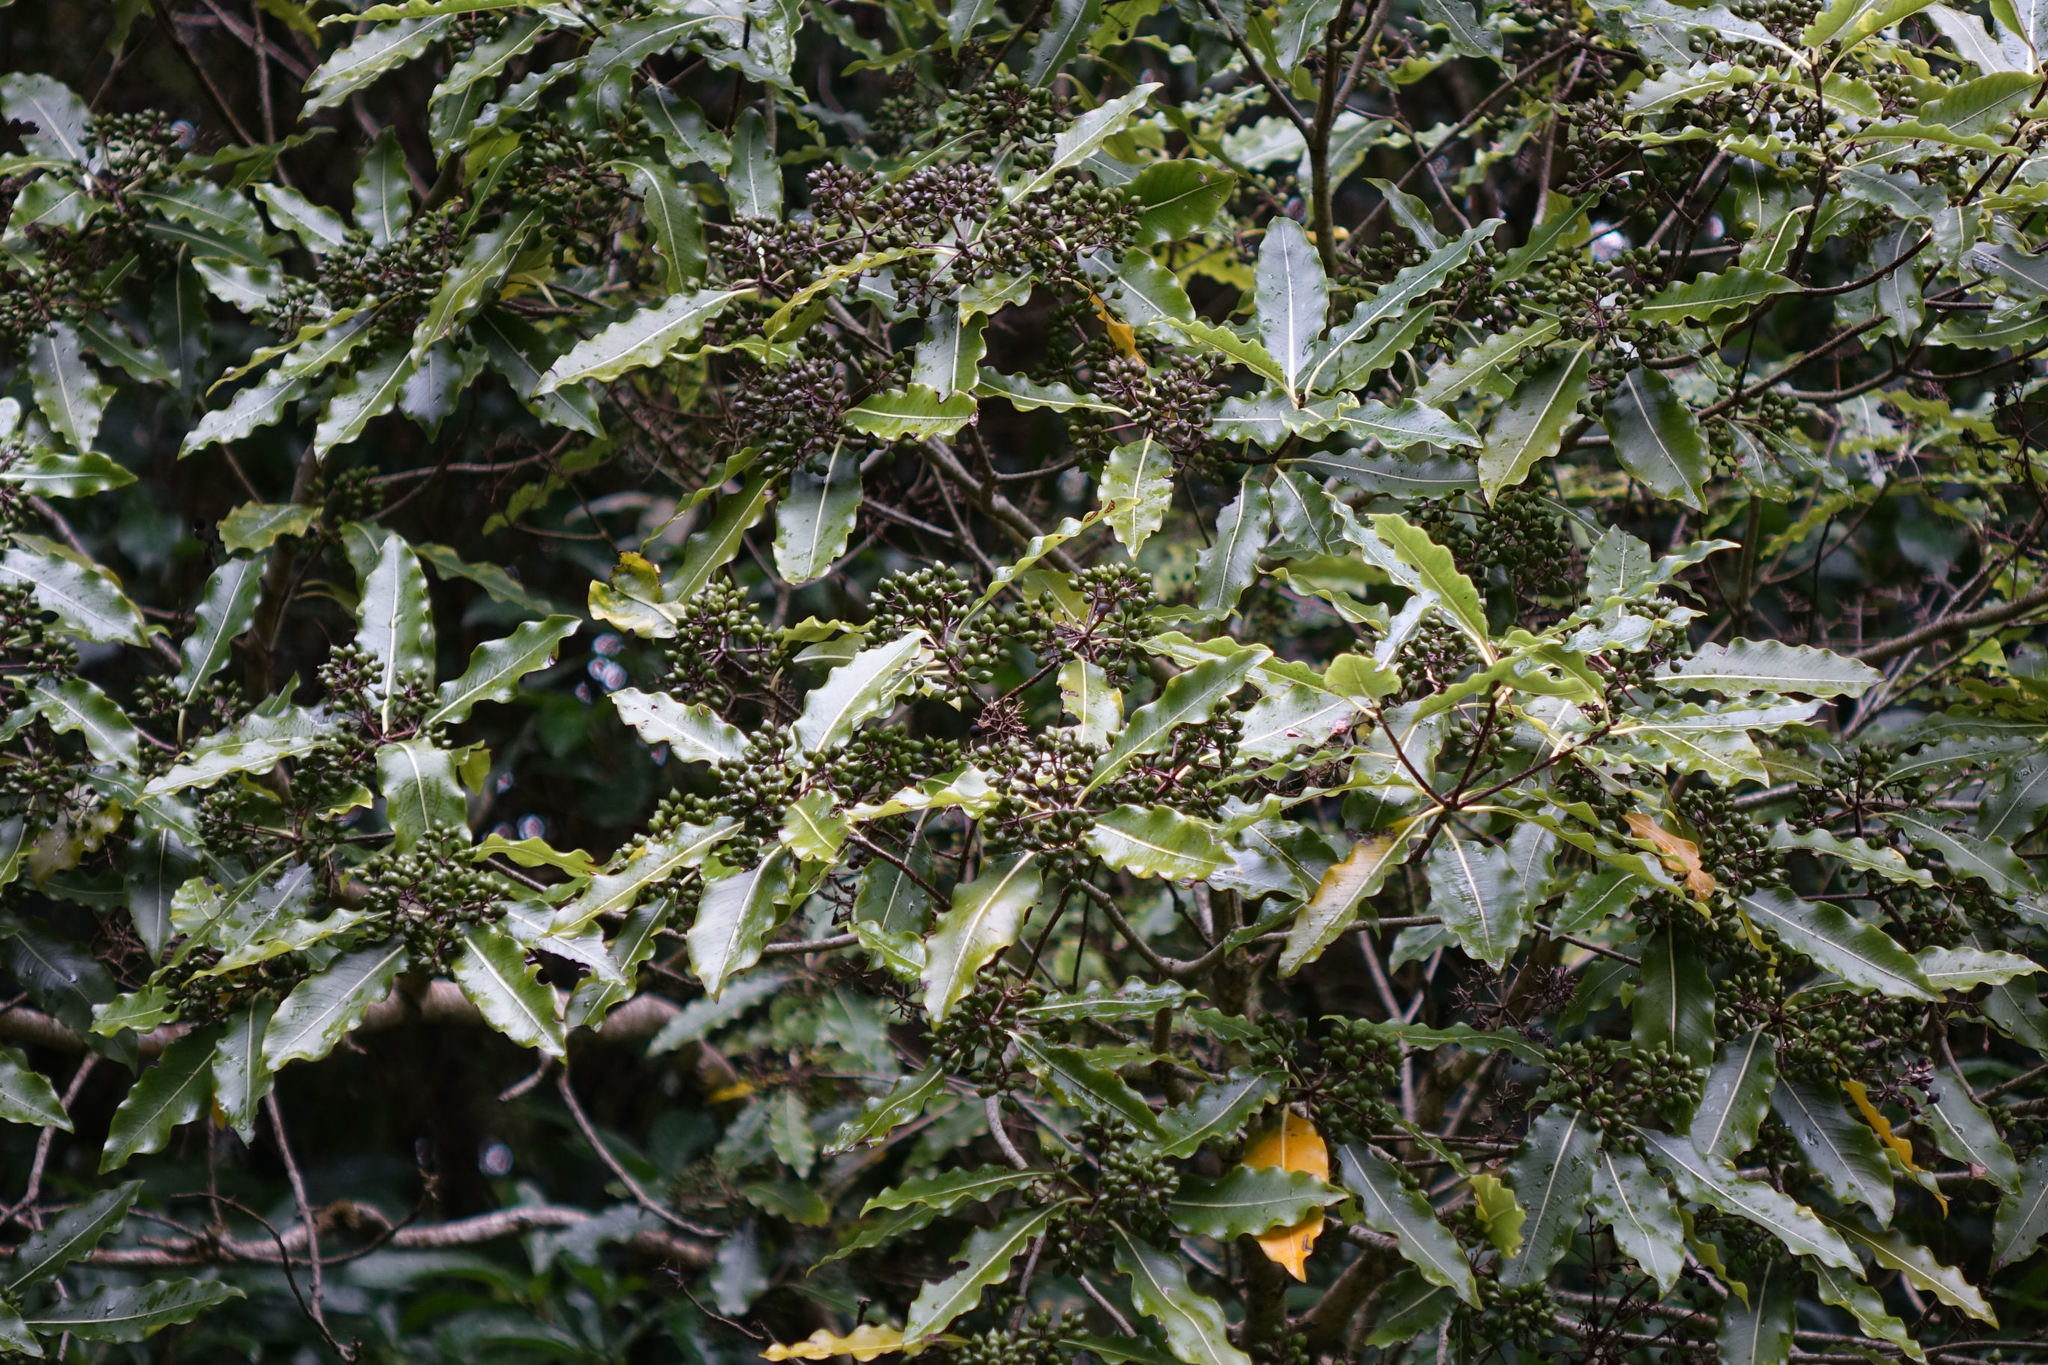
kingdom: Plantae
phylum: Tracheophyta
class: Magnoliopsida
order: Apiales
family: Pittosporaceae
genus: Pittosporum
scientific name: Pittosporum eugenioides
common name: Lemonwood
